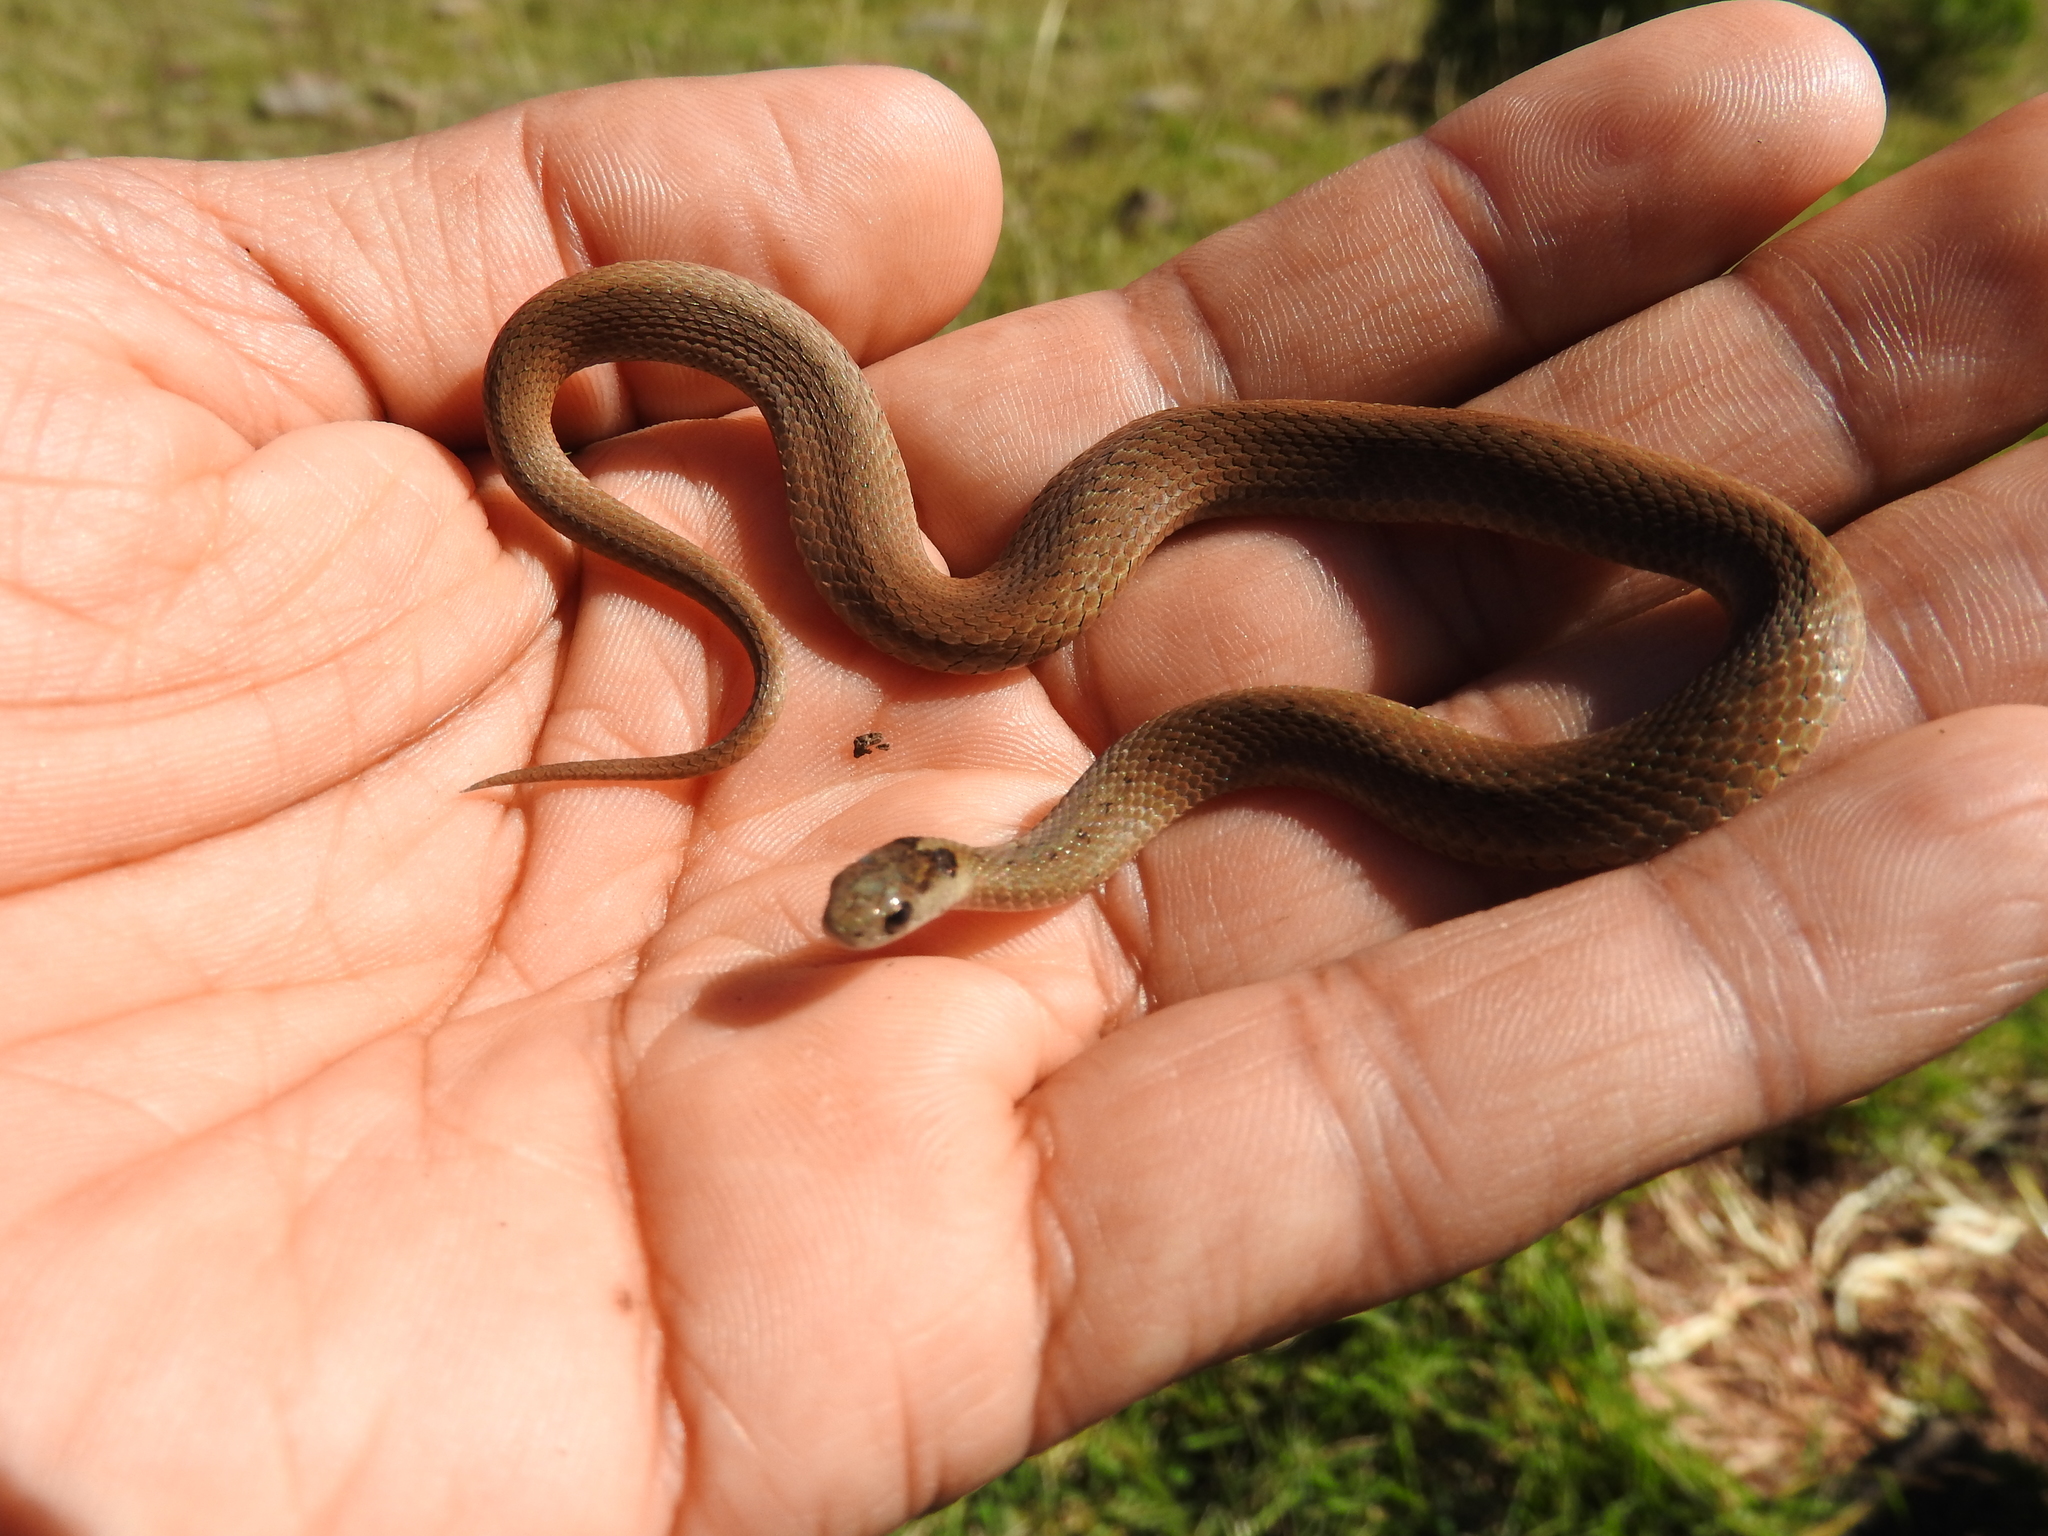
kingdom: Animalia
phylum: Chordata
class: Squamata
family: Colubridae
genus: Storeria
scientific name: Storeria storerioides
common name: Mexican brown snake
